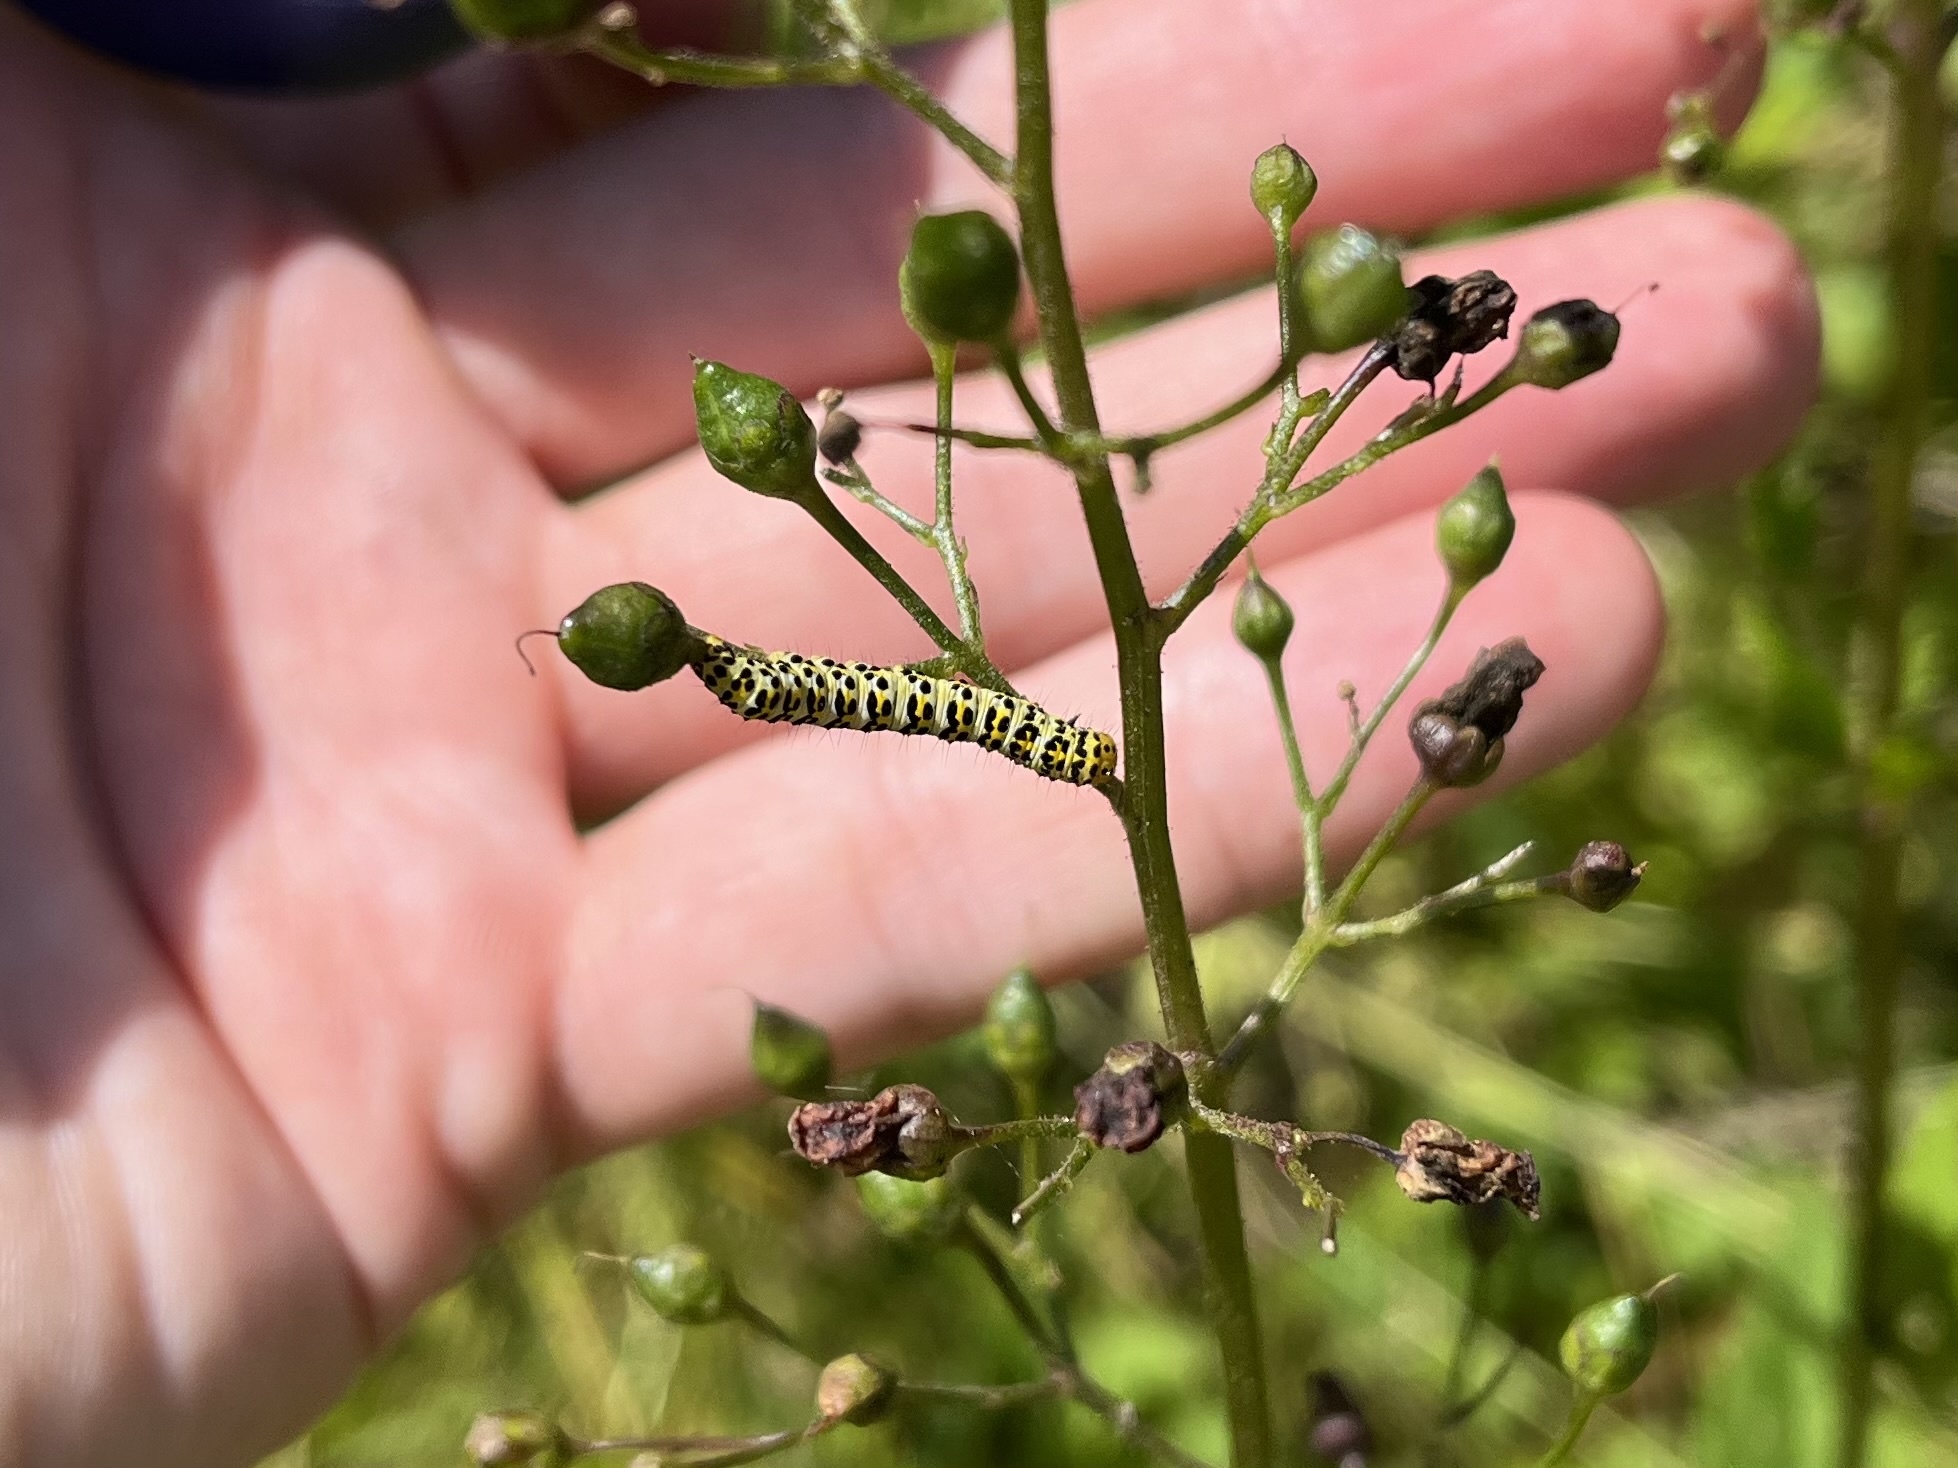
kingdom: Animalia
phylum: Arthropoda
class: Insecta
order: Lepidoptera
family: Noctuidae
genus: Shargacucullia
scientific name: Shargacucullia scrophulariae
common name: Water betony
